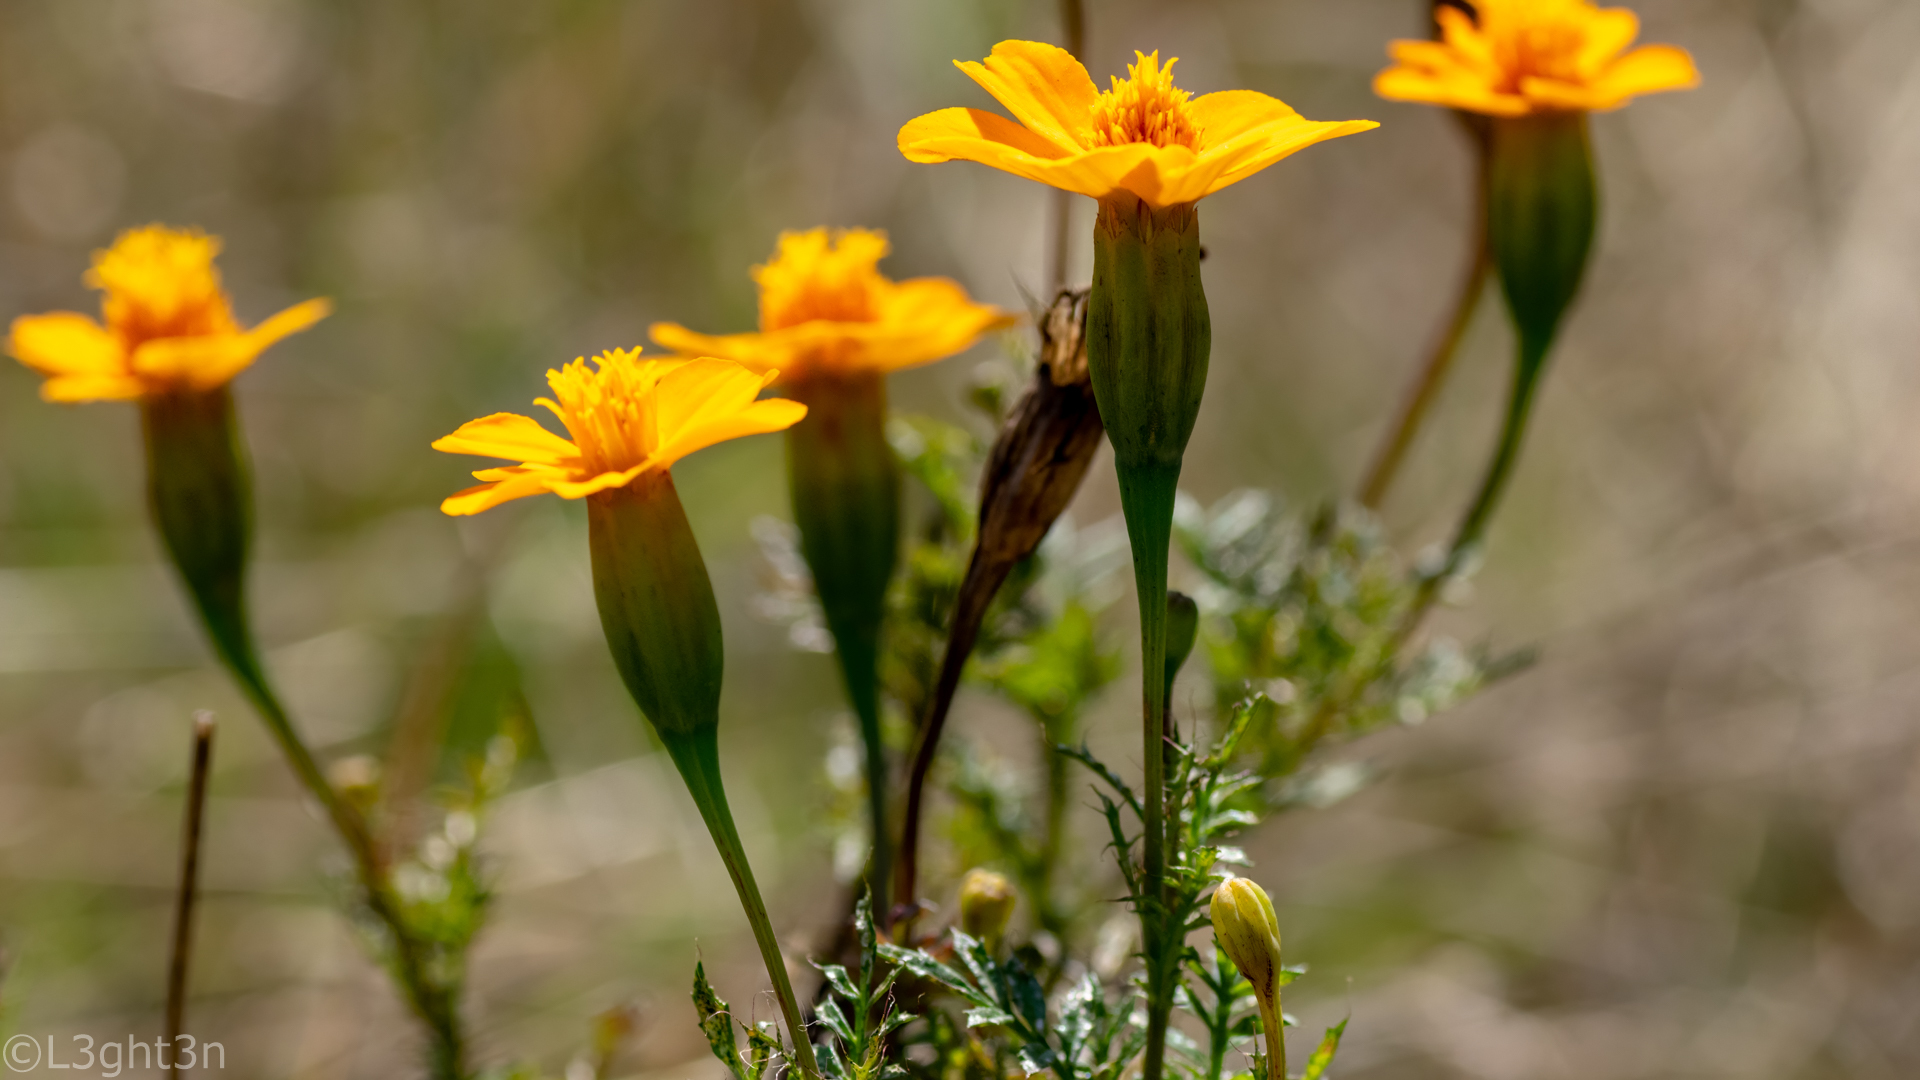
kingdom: Plantae
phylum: Tracheophyta
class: Magnoliopsida
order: Asterales
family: Asteraceae
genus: Tagetes
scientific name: Tagetes erecta
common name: African marigold
